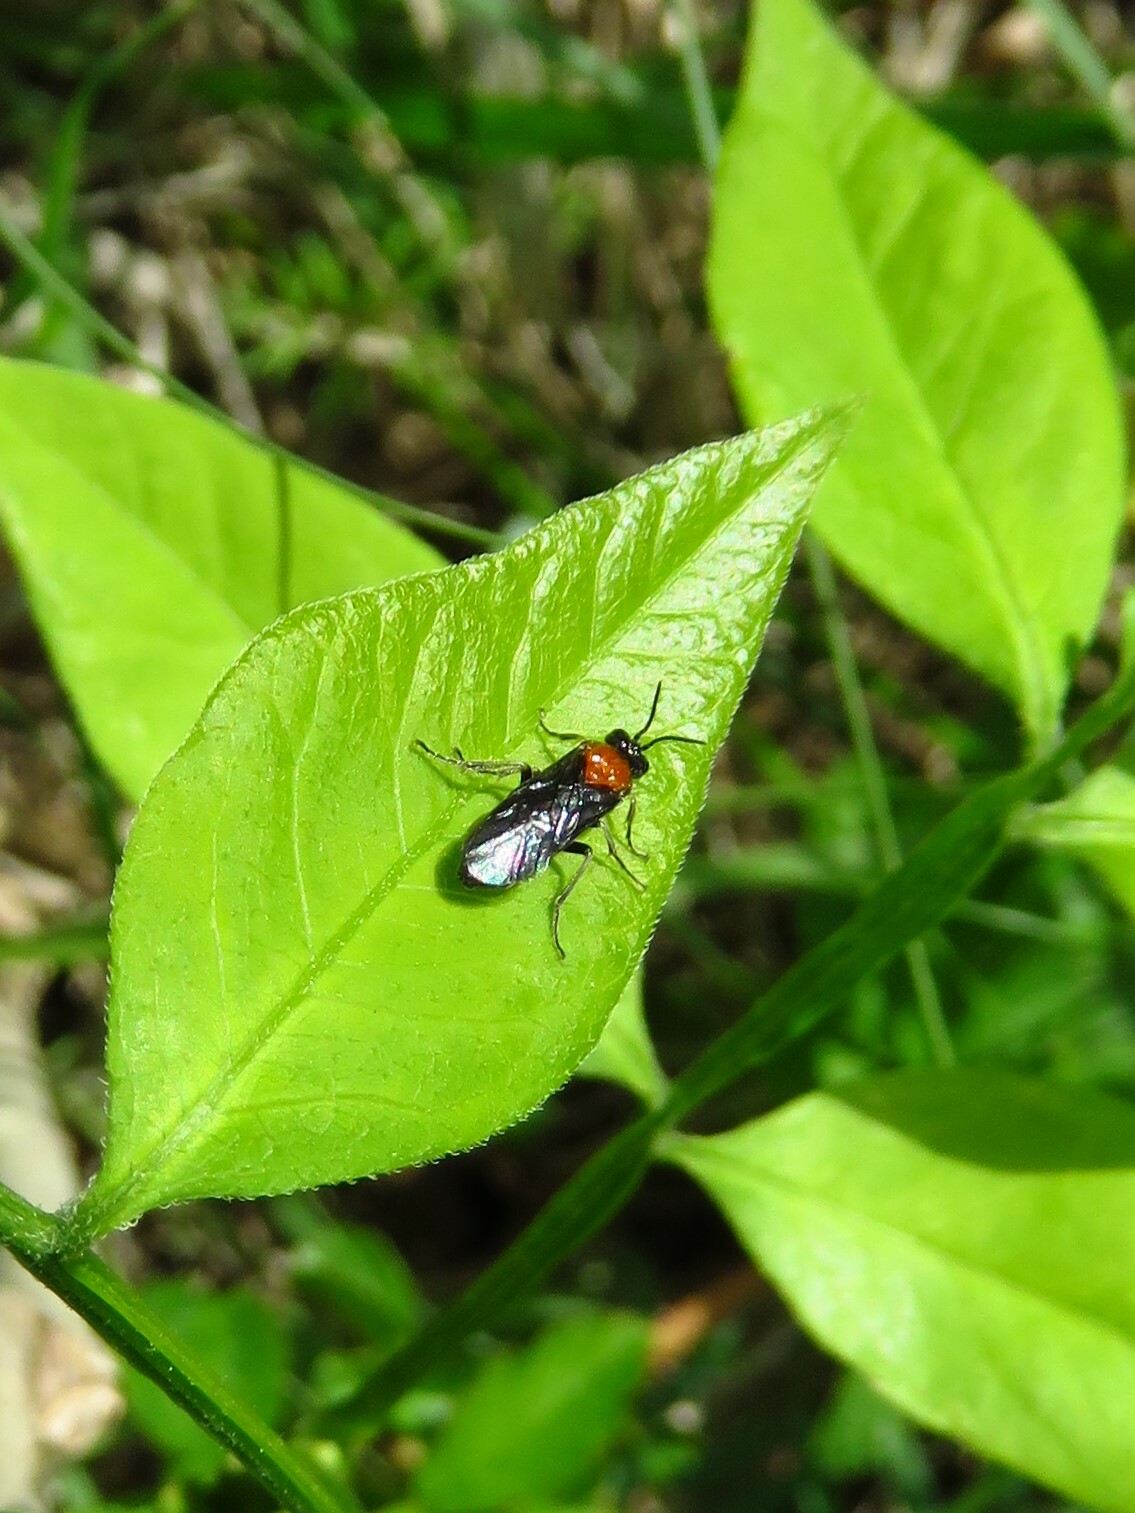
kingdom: Animalia
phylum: Arthropoda
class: Insecta
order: Hymenoptera
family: Tenthredinidae
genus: Tethida
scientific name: Tethida barda
